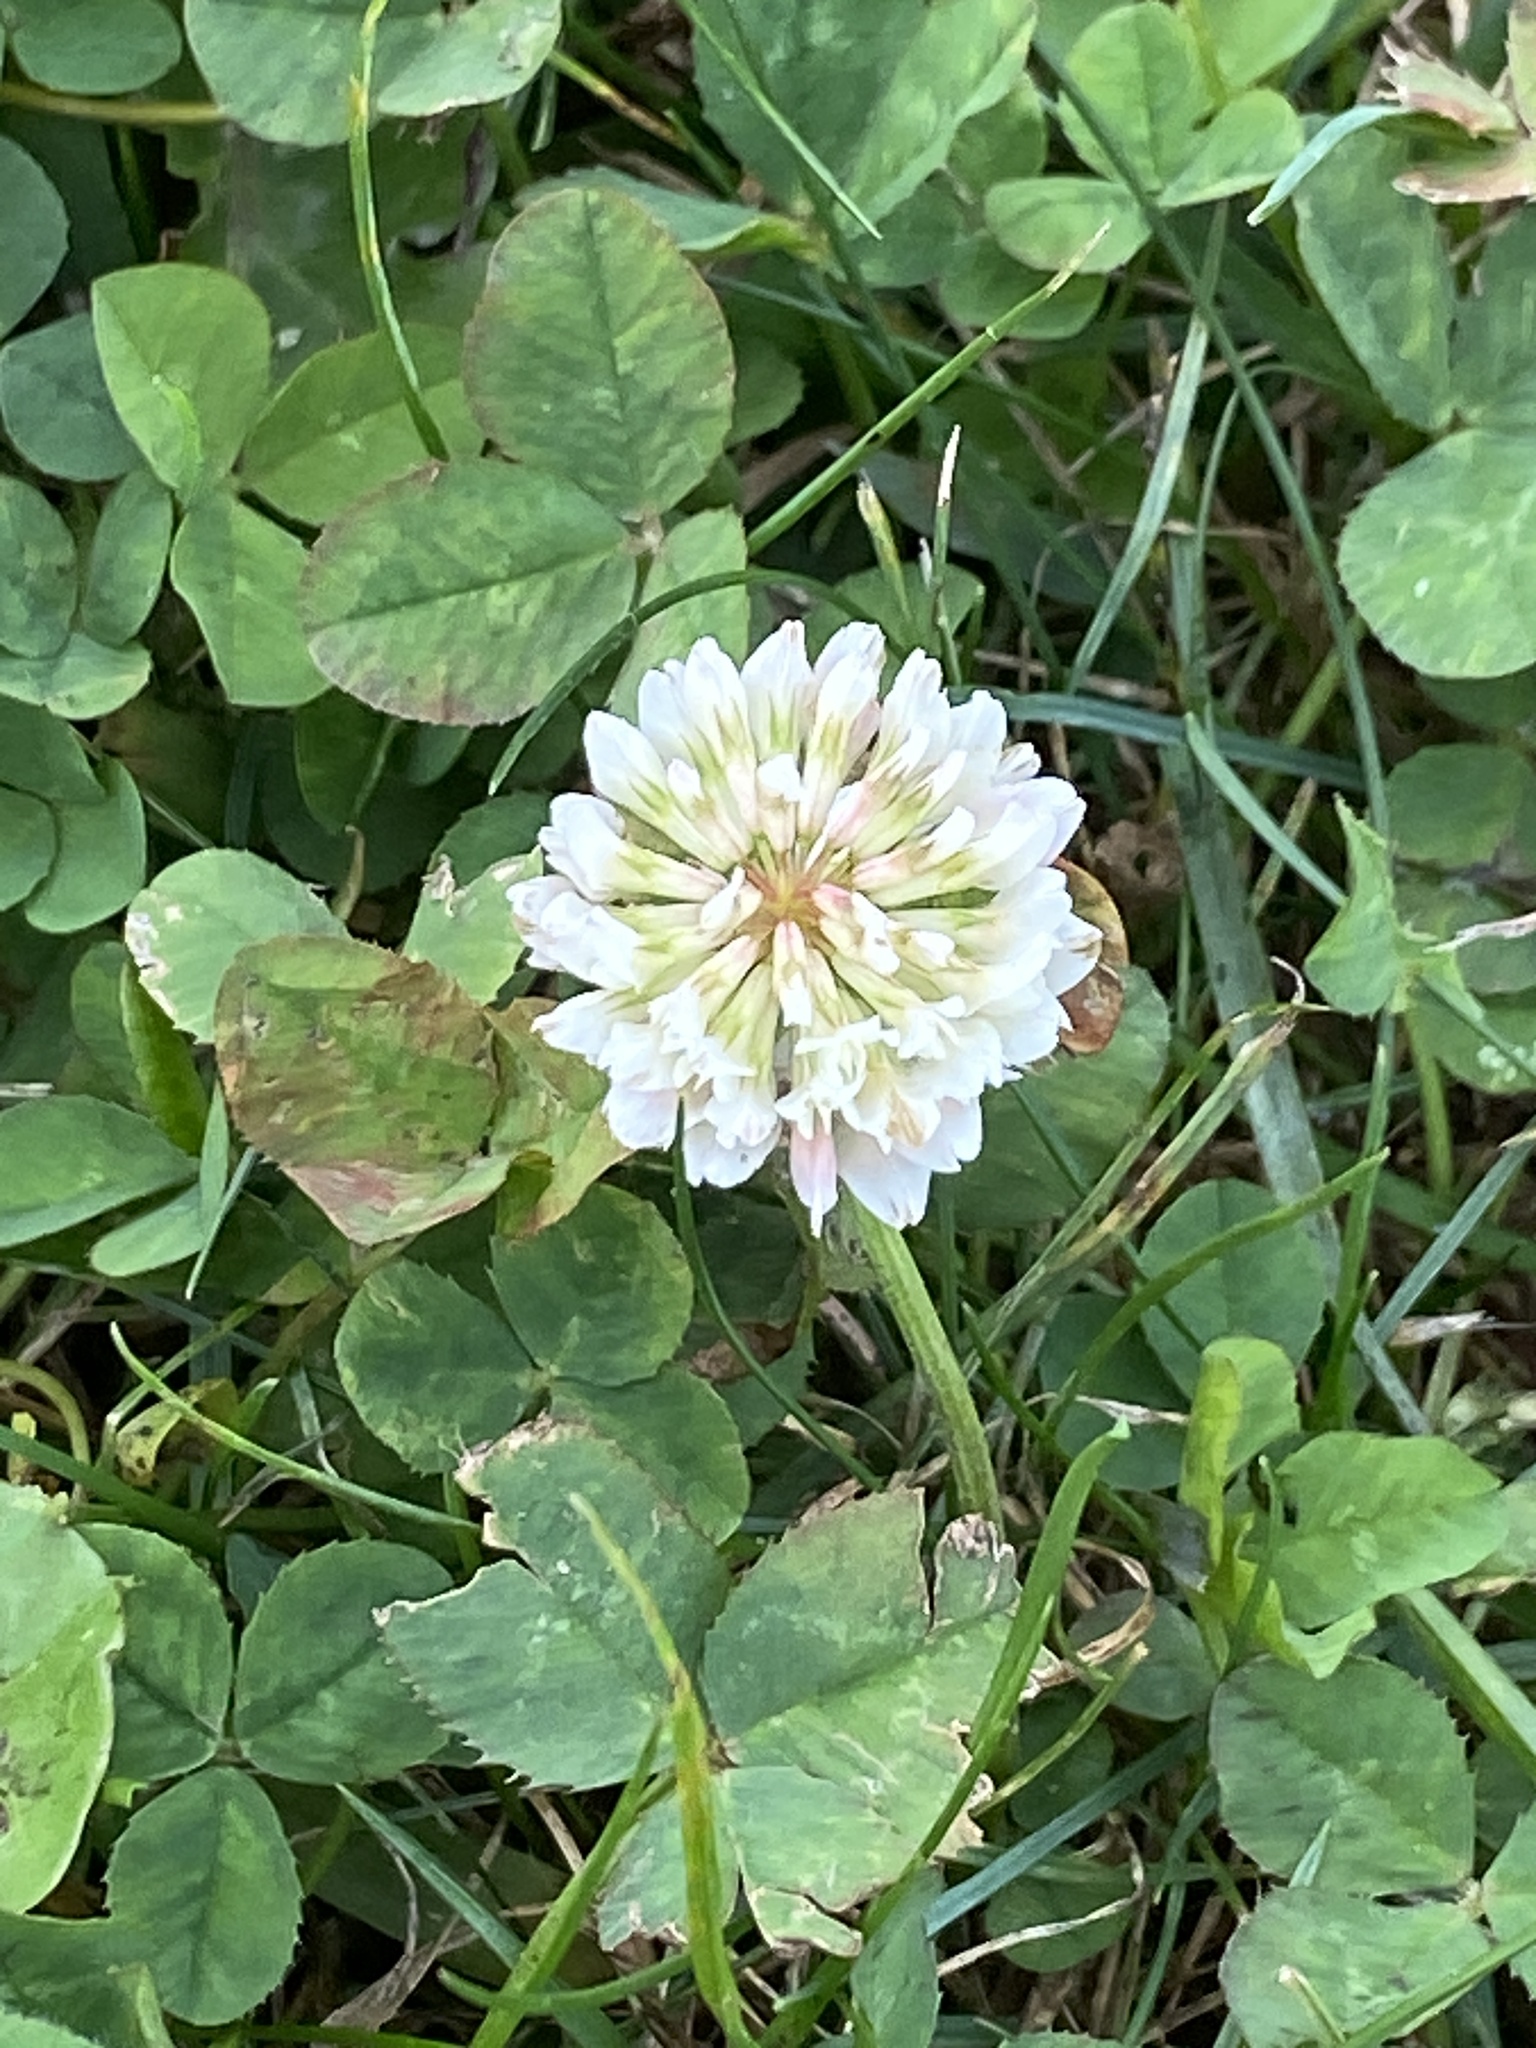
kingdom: Plantae
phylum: Tracheophyta
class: Magnoliopsida
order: Fabales
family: Fabaceae
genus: Trifolium
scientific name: Trifolium repens
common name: White clover
